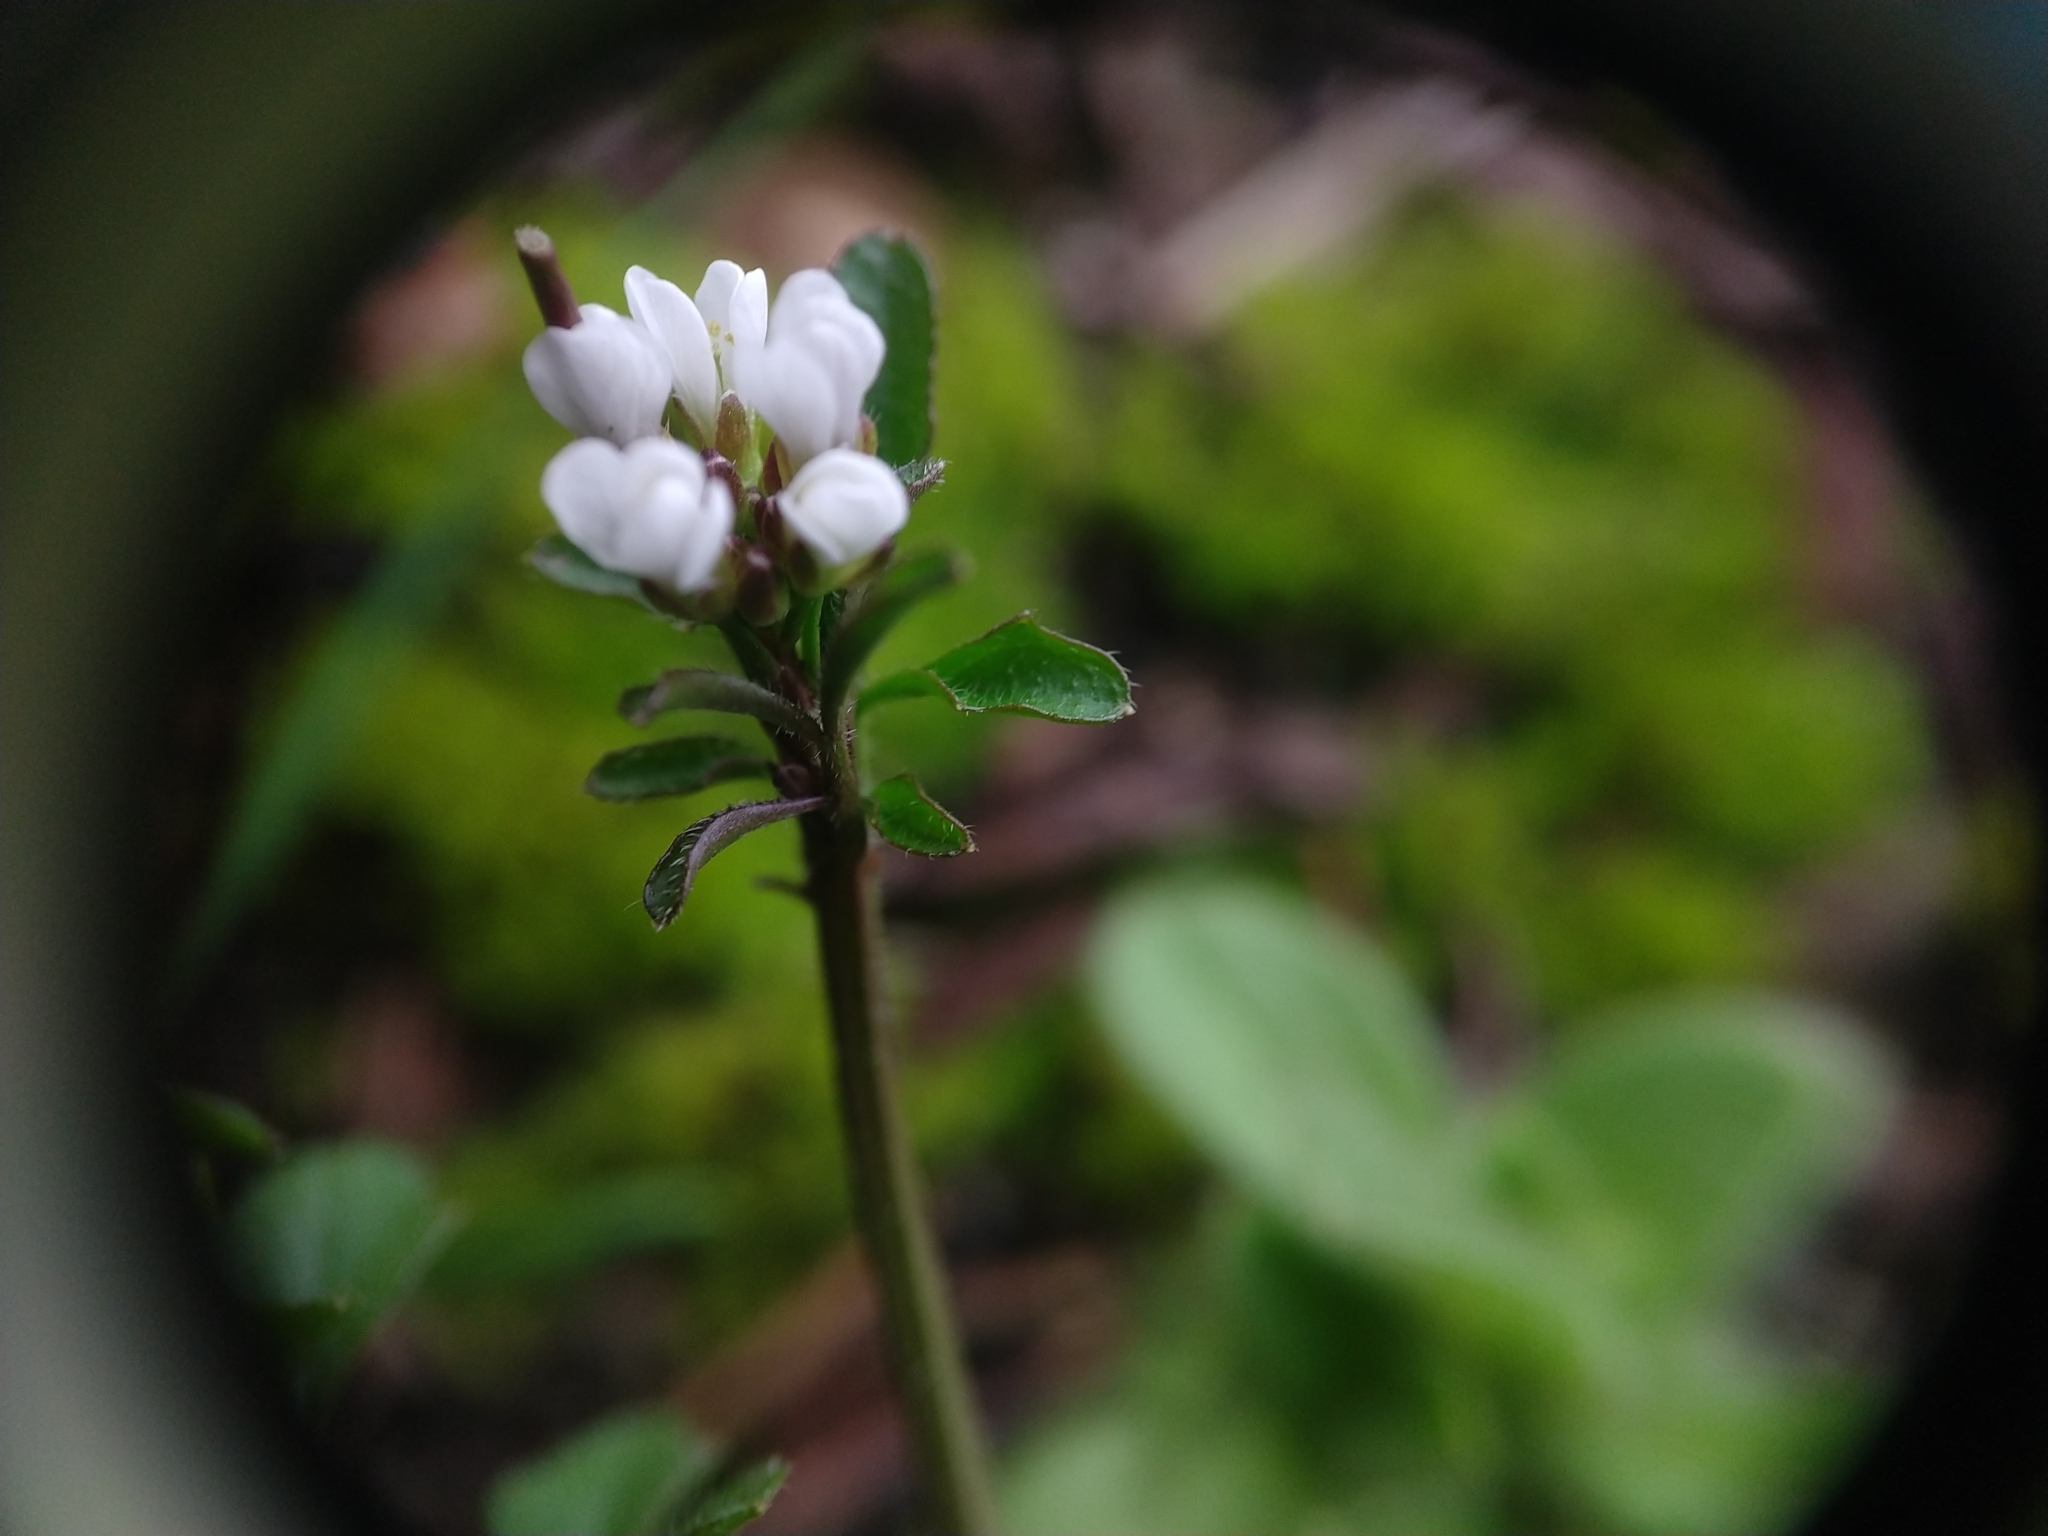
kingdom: Plantae
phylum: Tracheophyta
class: Magnoliopsida
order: Brassicales
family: Brassicaceae
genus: Cardamine
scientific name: Cardamine hirsuta
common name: Hairy bittercress
